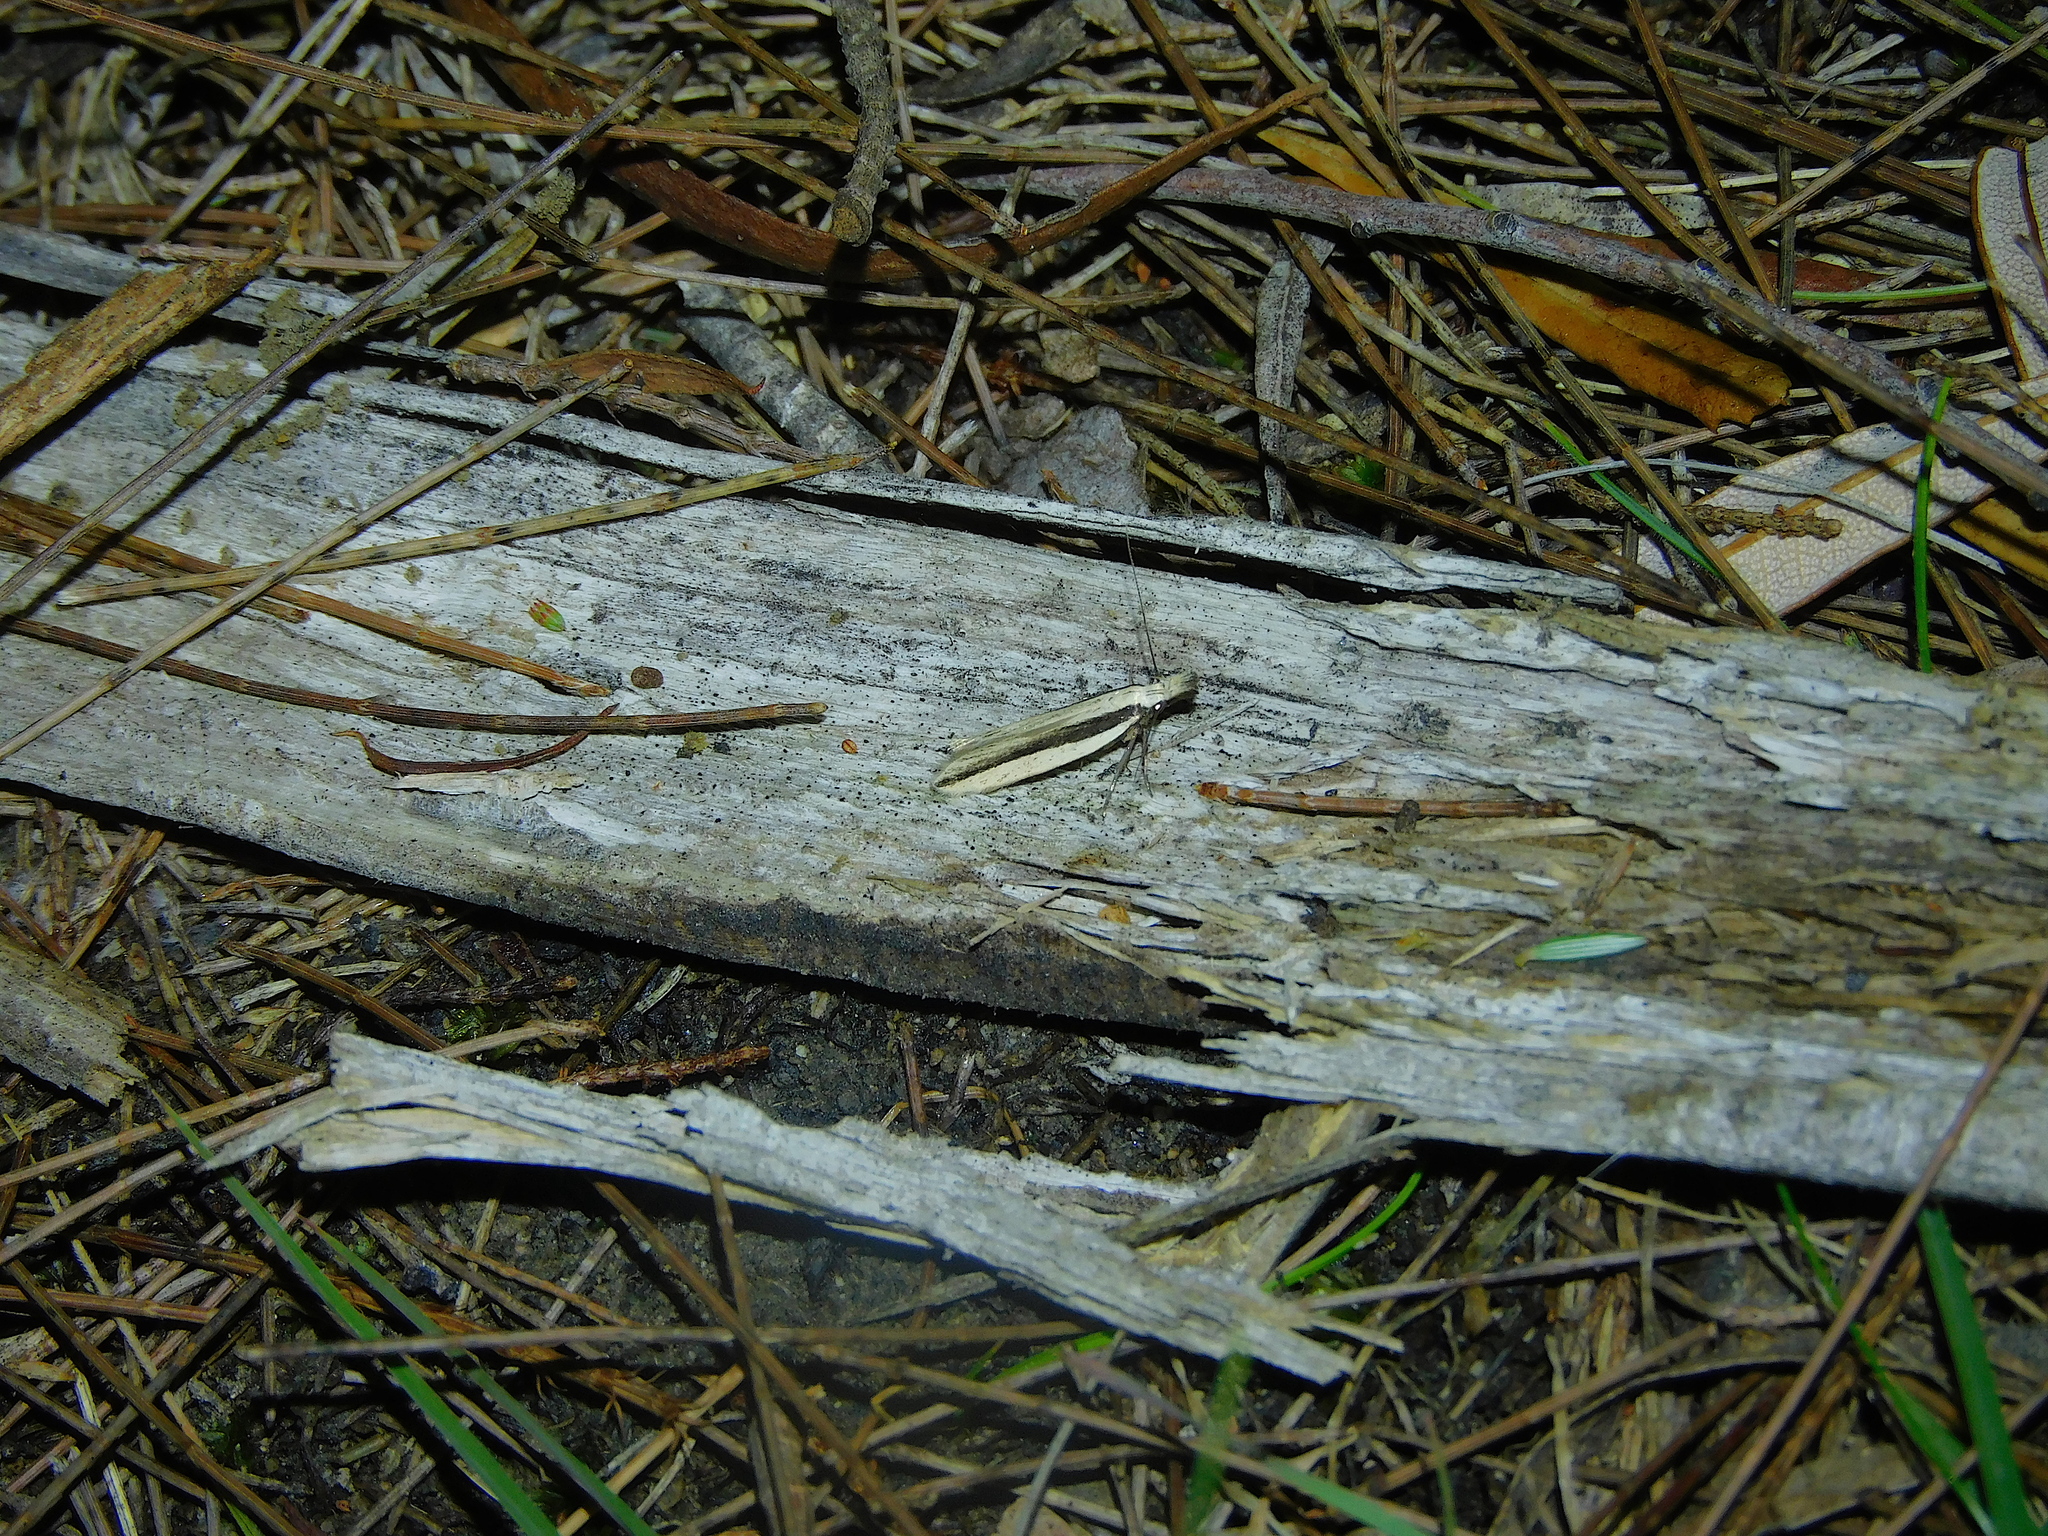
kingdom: Animalia
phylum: Arthropoda
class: Insecta
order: Lepidoptera
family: Gelechiidae
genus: Mesophleps
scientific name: Mesophleps
